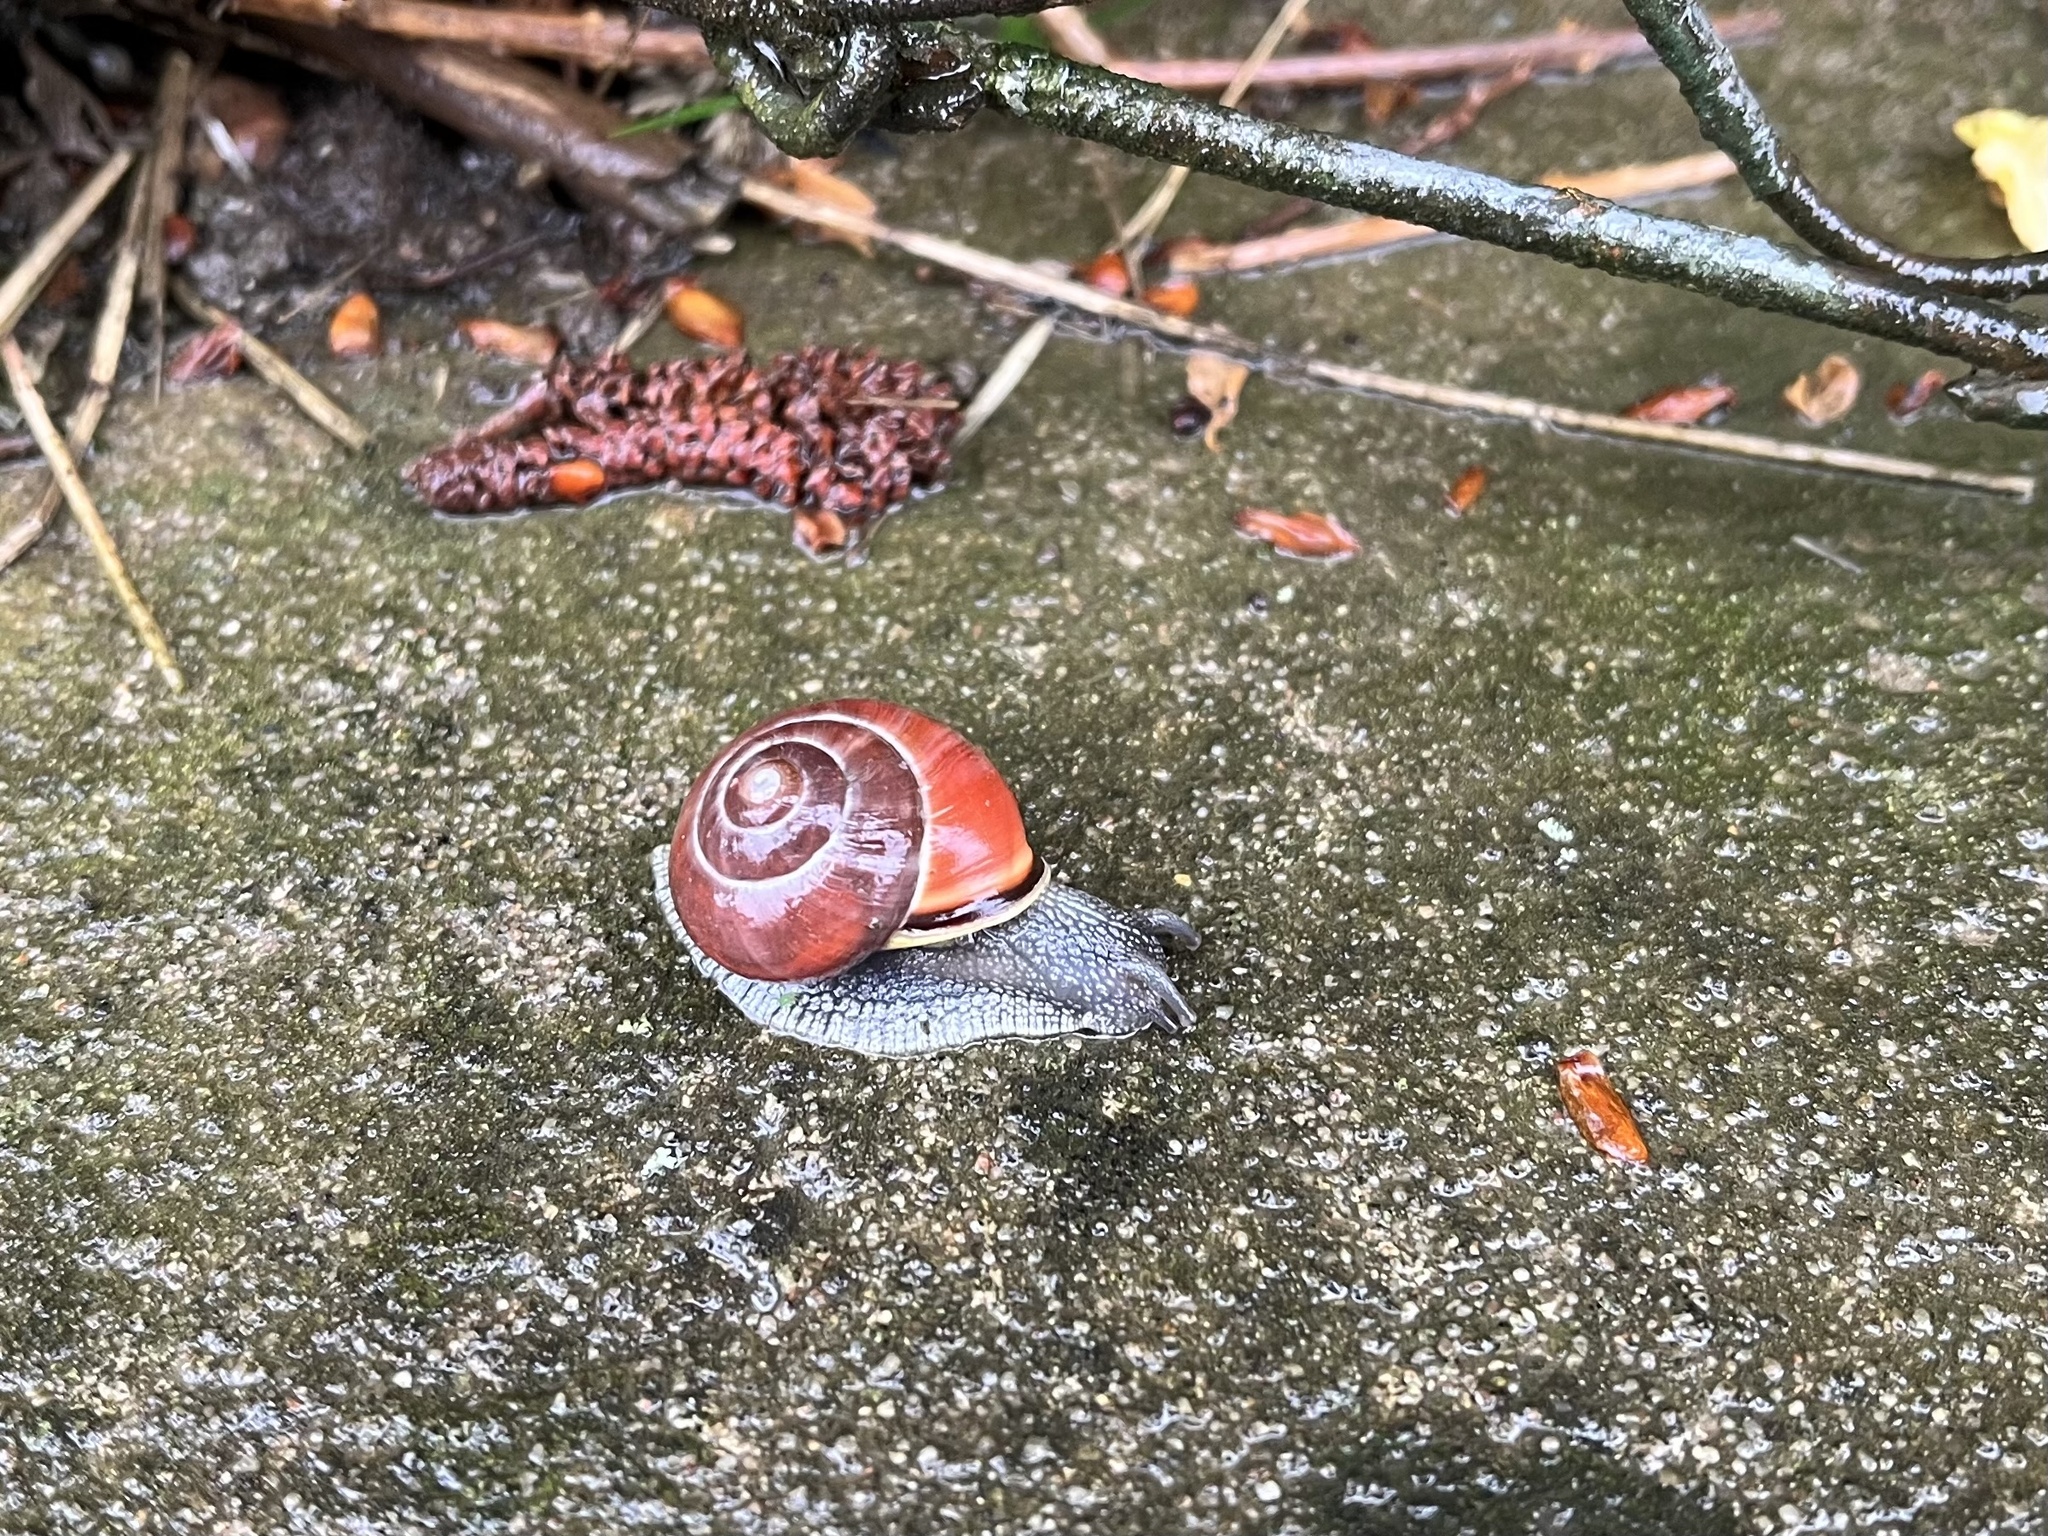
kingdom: Animalia
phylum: Mollusca
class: Gastropoda
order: Stylommatophora
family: Helicidae
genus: Cepaea
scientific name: Cepaea nemoralis
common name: Grovesnail
